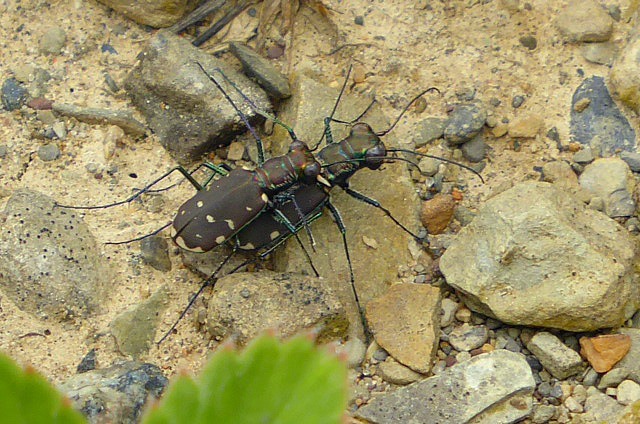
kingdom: Animalia
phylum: Arthropoda
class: Insecta
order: Coleoptera
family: Carabidae
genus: Cicindela
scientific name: Cicindela rufiventris
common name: Eastern red-bellied tiger beetle
